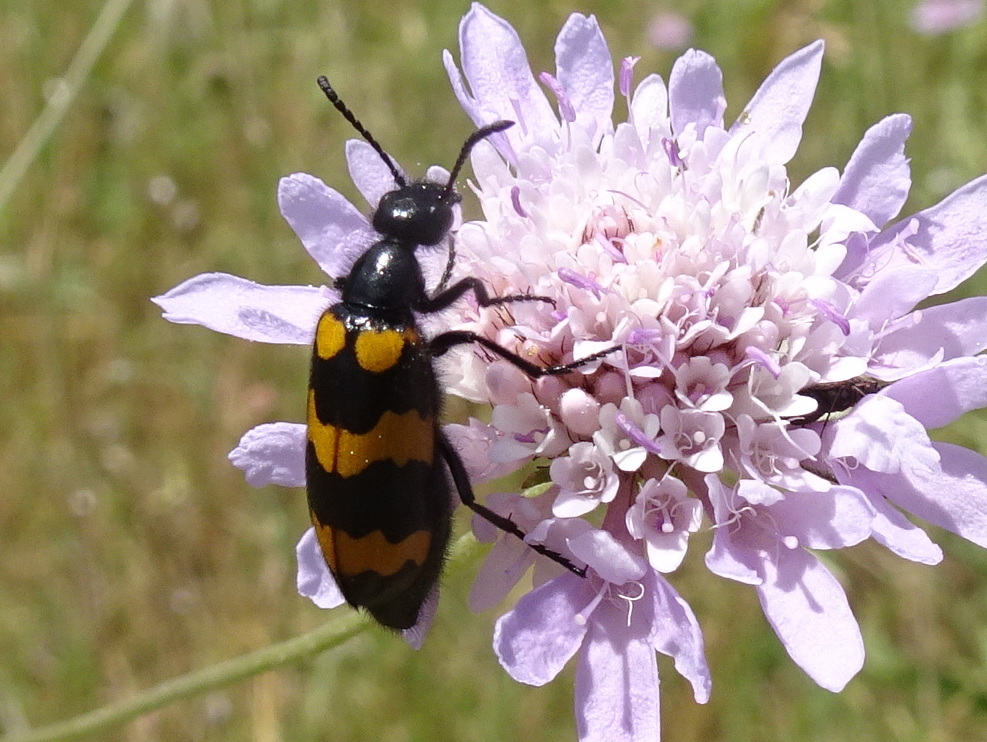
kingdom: Animalia
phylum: Arthropoda
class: Insecta
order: Coleoptera
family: Meloidae
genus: Mylabris
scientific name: Mylabris variabilis
